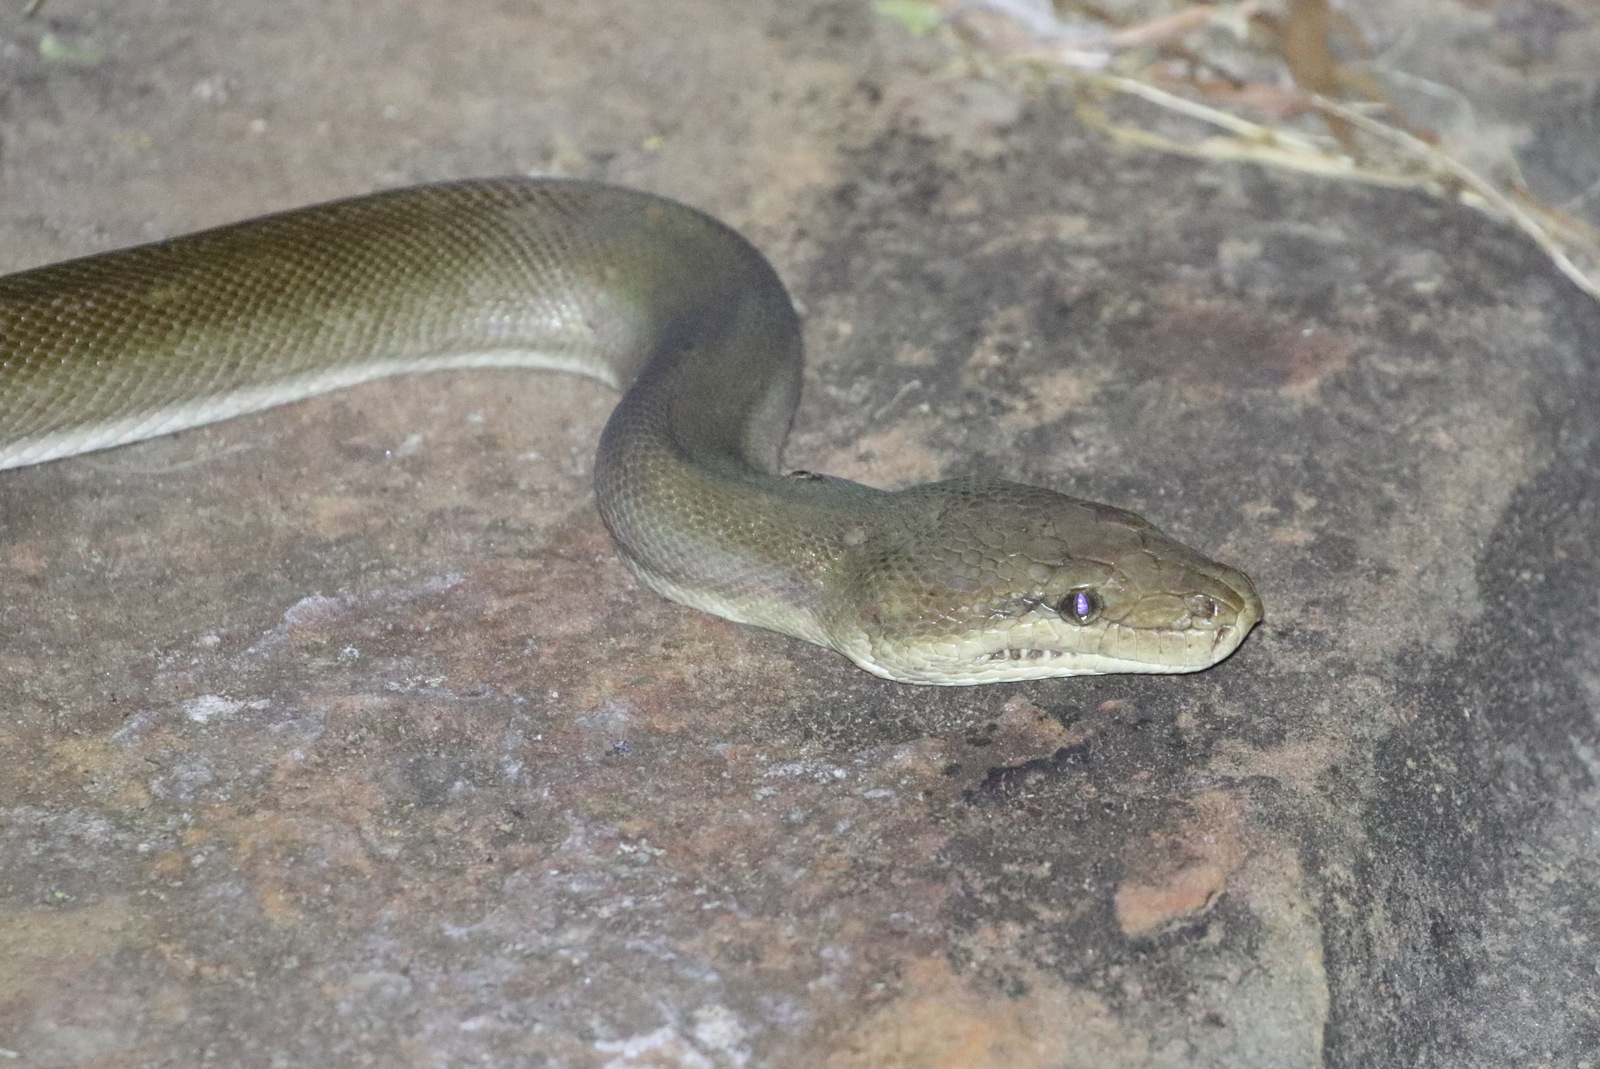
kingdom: Animalia
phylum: Chordata
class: Squamata
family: Pythonidae
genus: Liasis
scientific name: Liasis olivaceus
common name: Olive python
